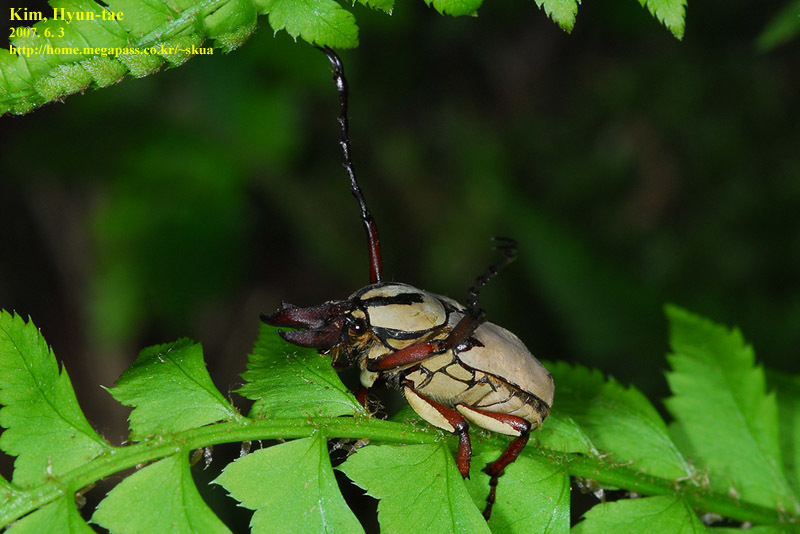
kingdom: Animalia
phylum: Arthropoda
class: Insecta
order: Coleoptera
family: Scarabaeidae
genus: Dicronocephalus
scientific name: Dicronocephalus adamsi
